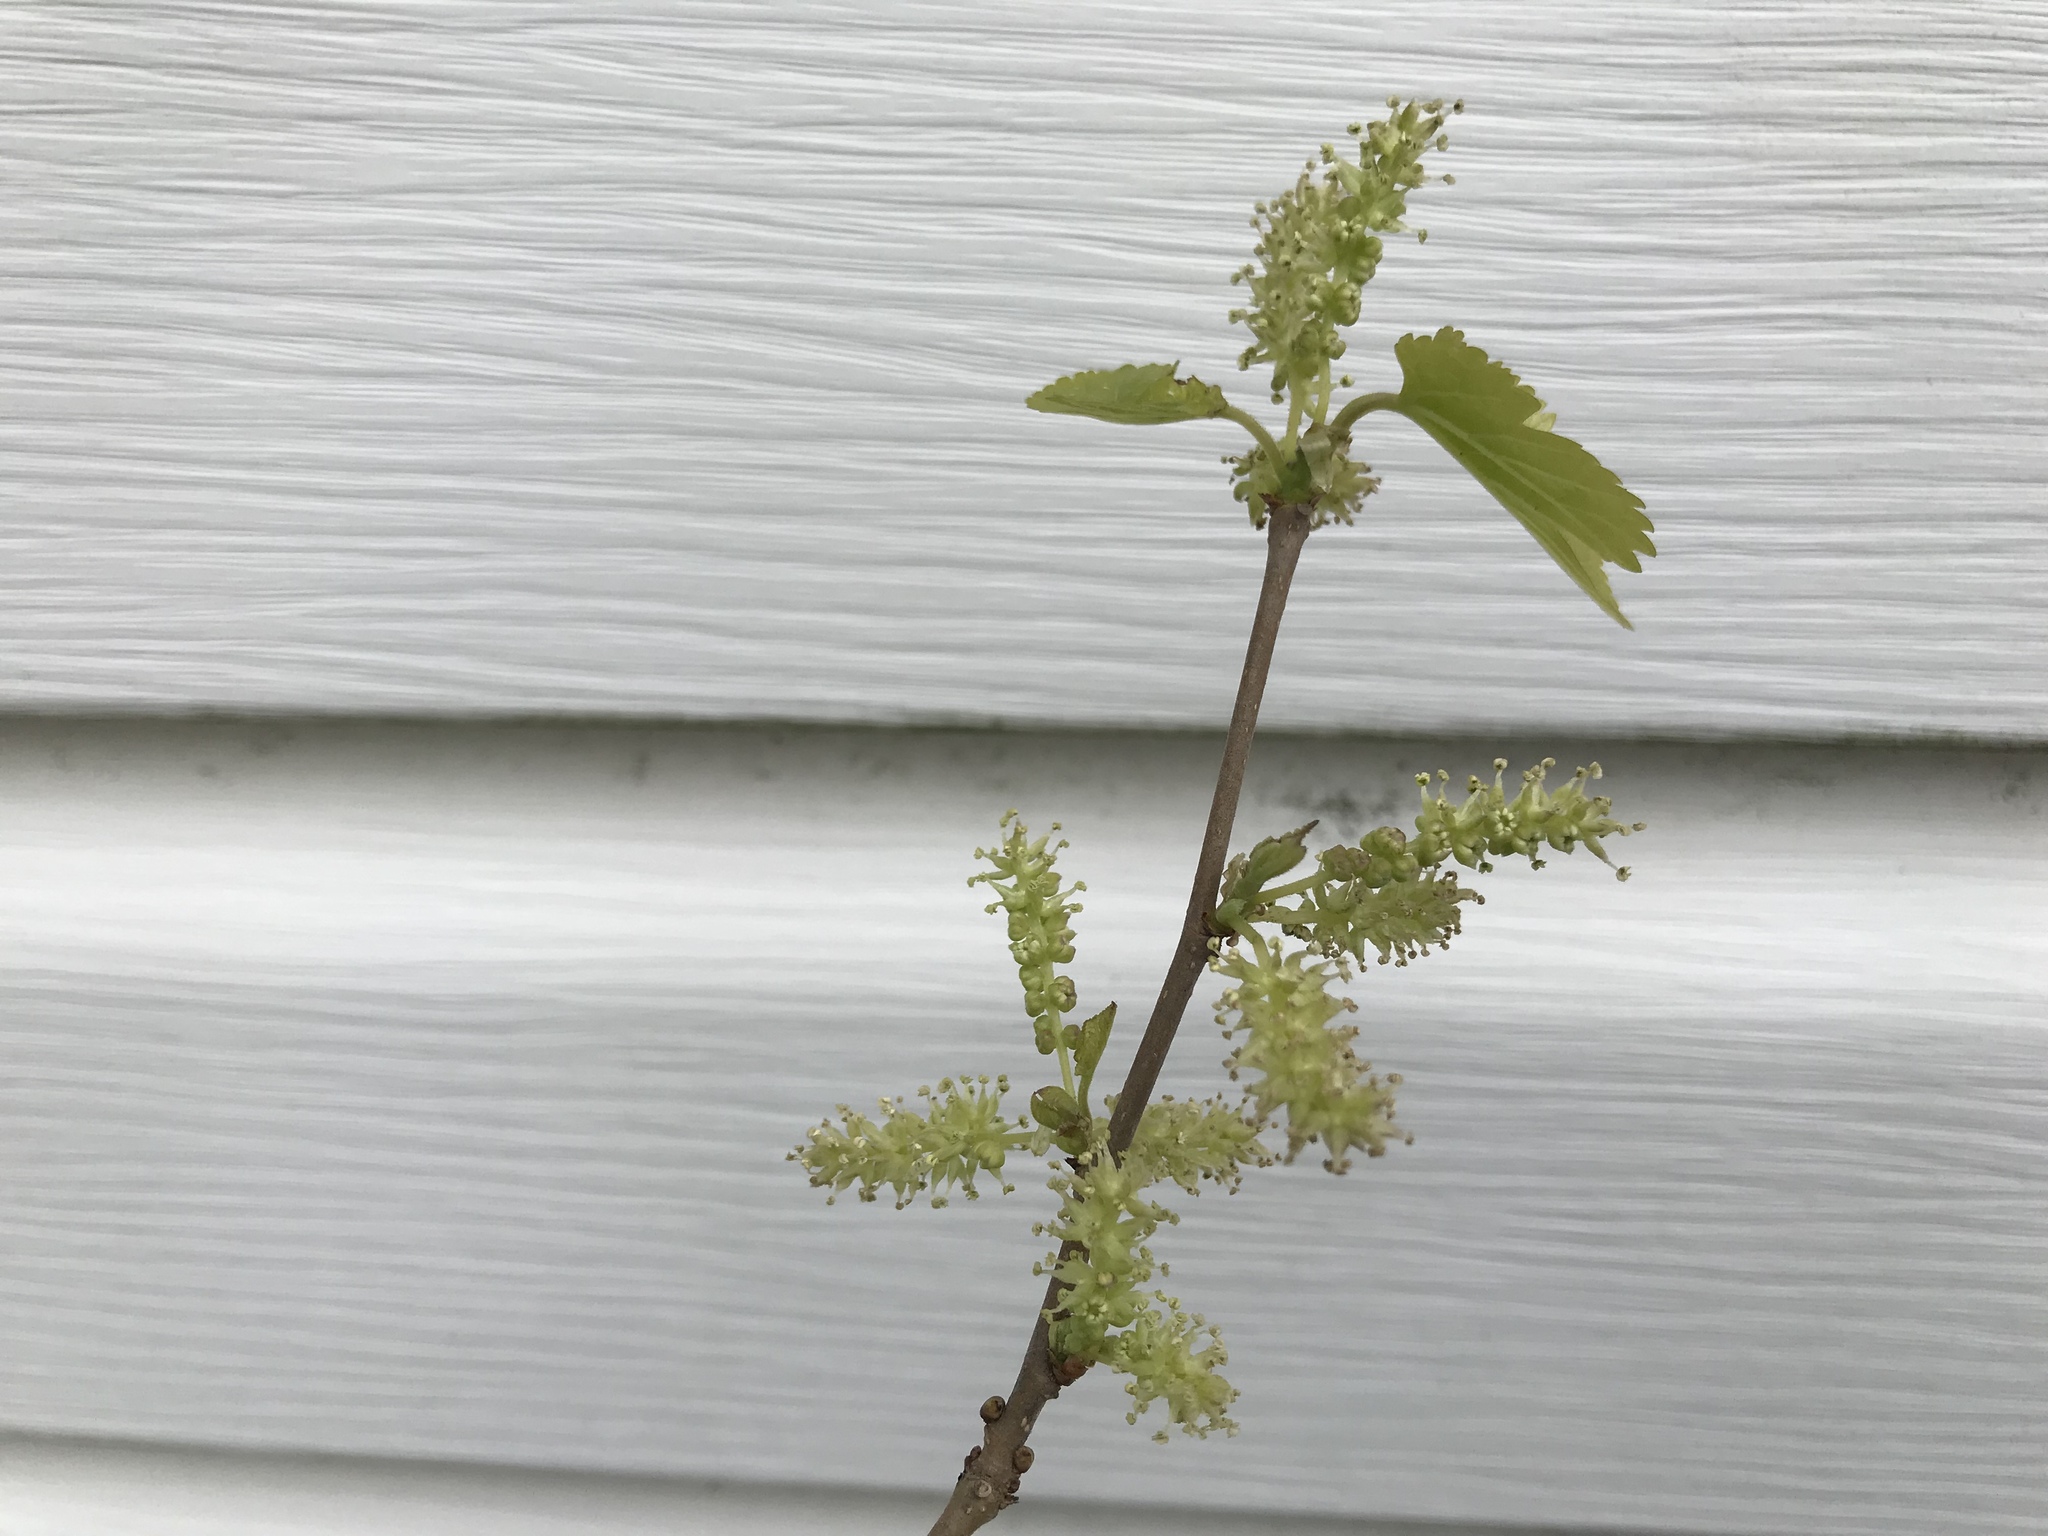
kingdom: Plantae
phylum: Tracheophyta
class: Magnoliopsida
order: Rosales
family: Moraceae
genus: Morus
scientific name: Morus alba
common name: White mulberry
